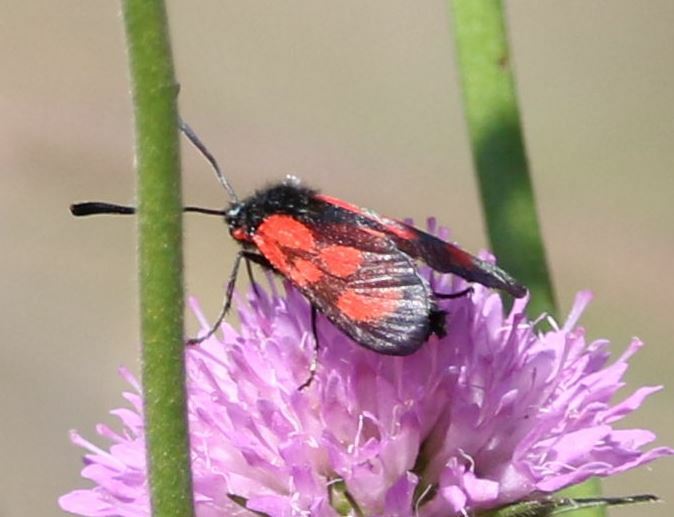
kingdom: Animalia
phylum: Arthropoda
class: Insecta
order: Lepidoptera
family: Zygaenidae
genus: Zygaena
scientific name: Zygaena loti
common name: Slender scotch burnet
